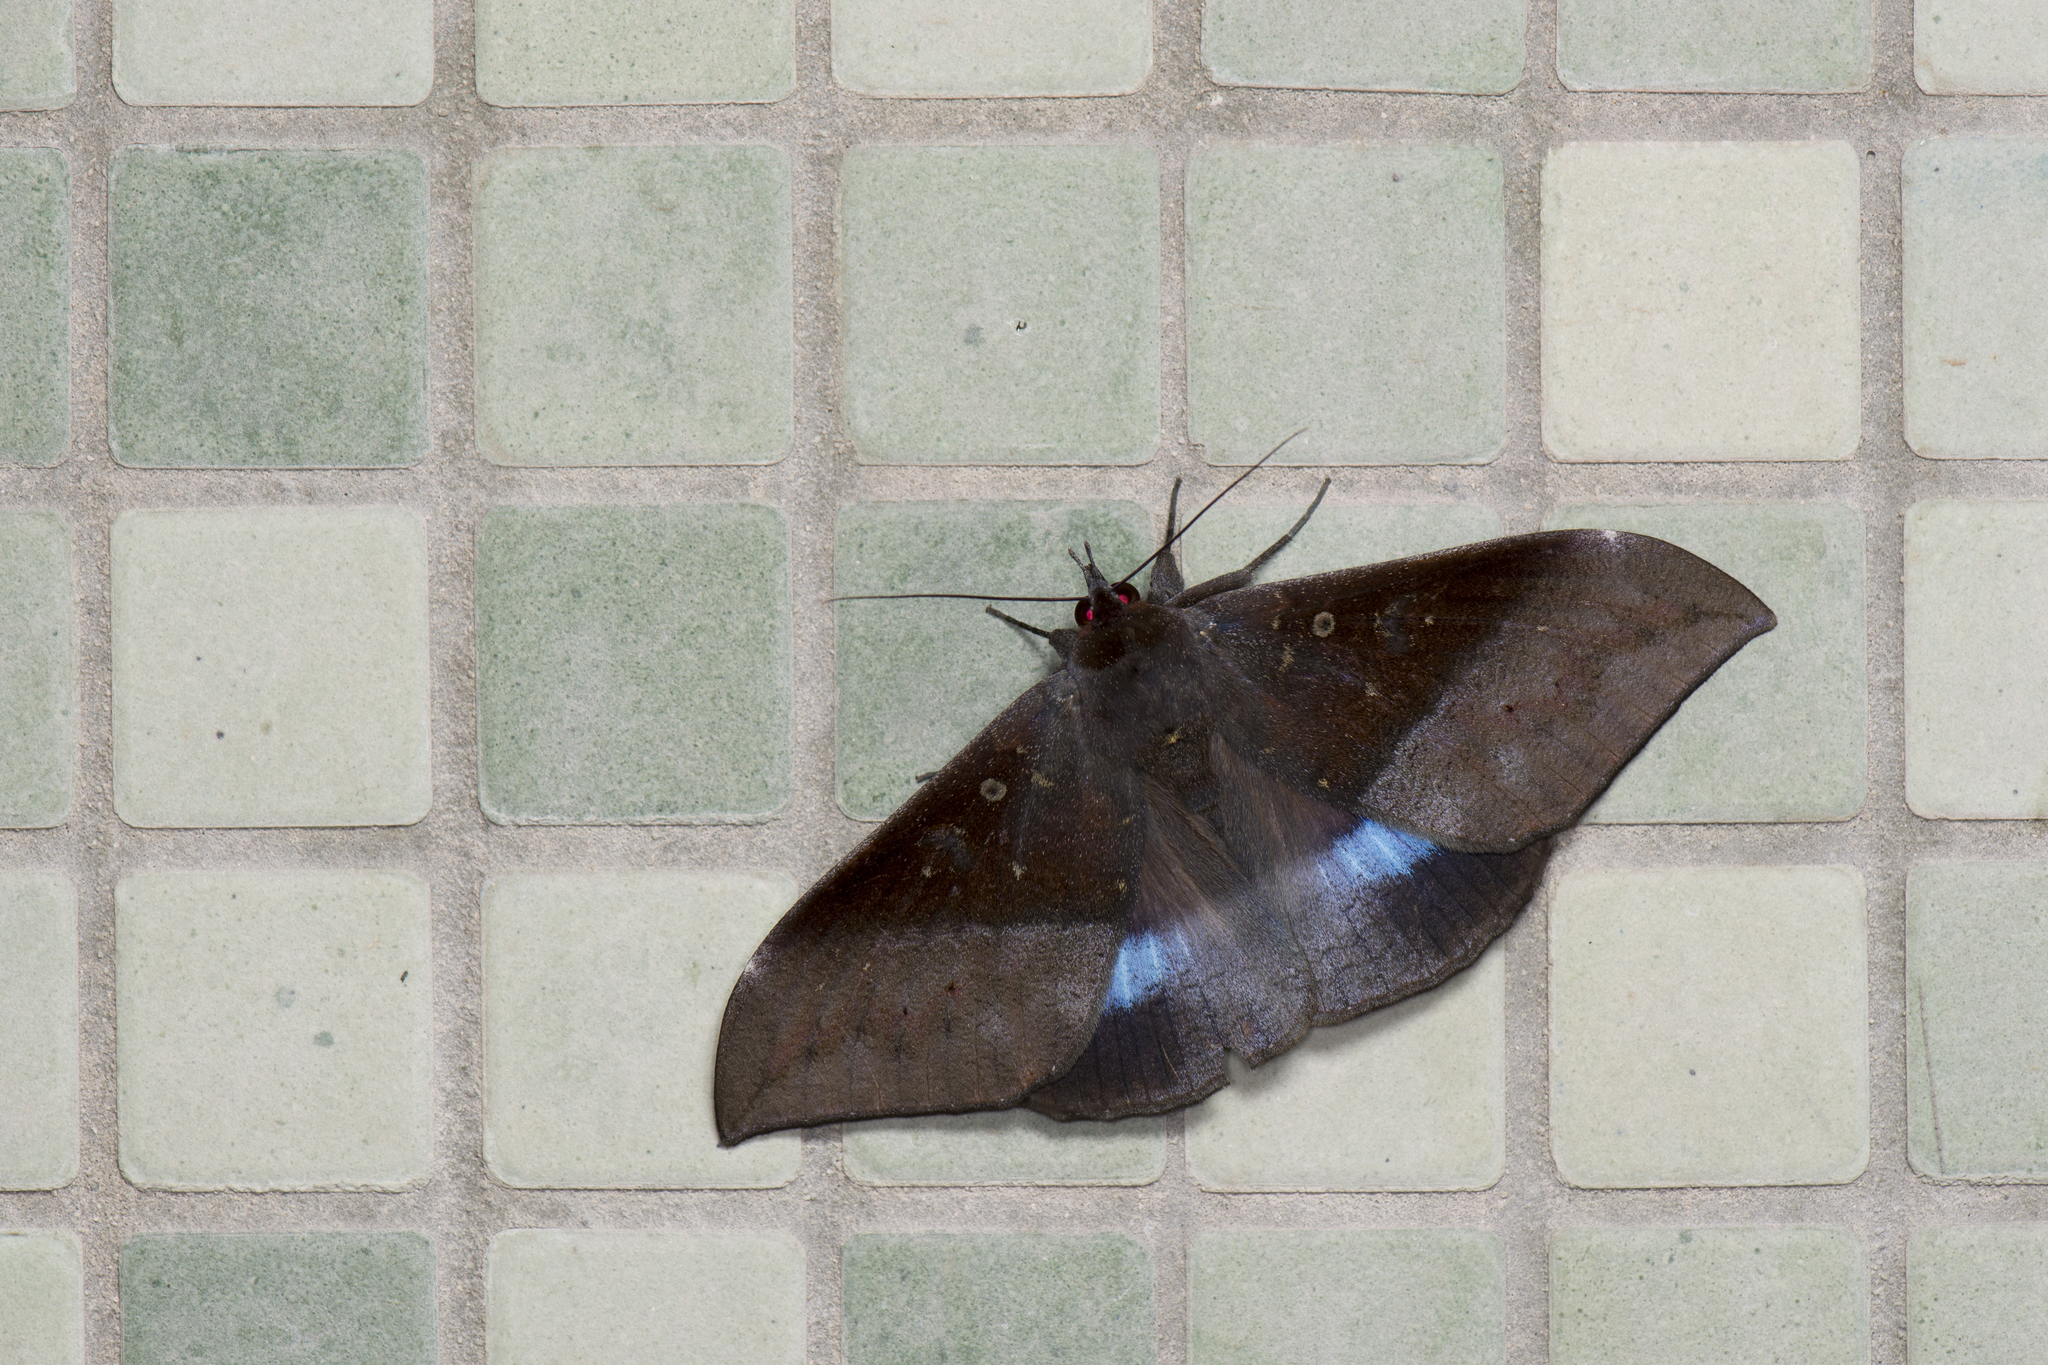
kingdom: Animalia
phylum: Arthropoda
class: Insecta
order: Lepidoptera
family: Erebidae
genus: Ischyja
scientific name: Ischyja manlia
